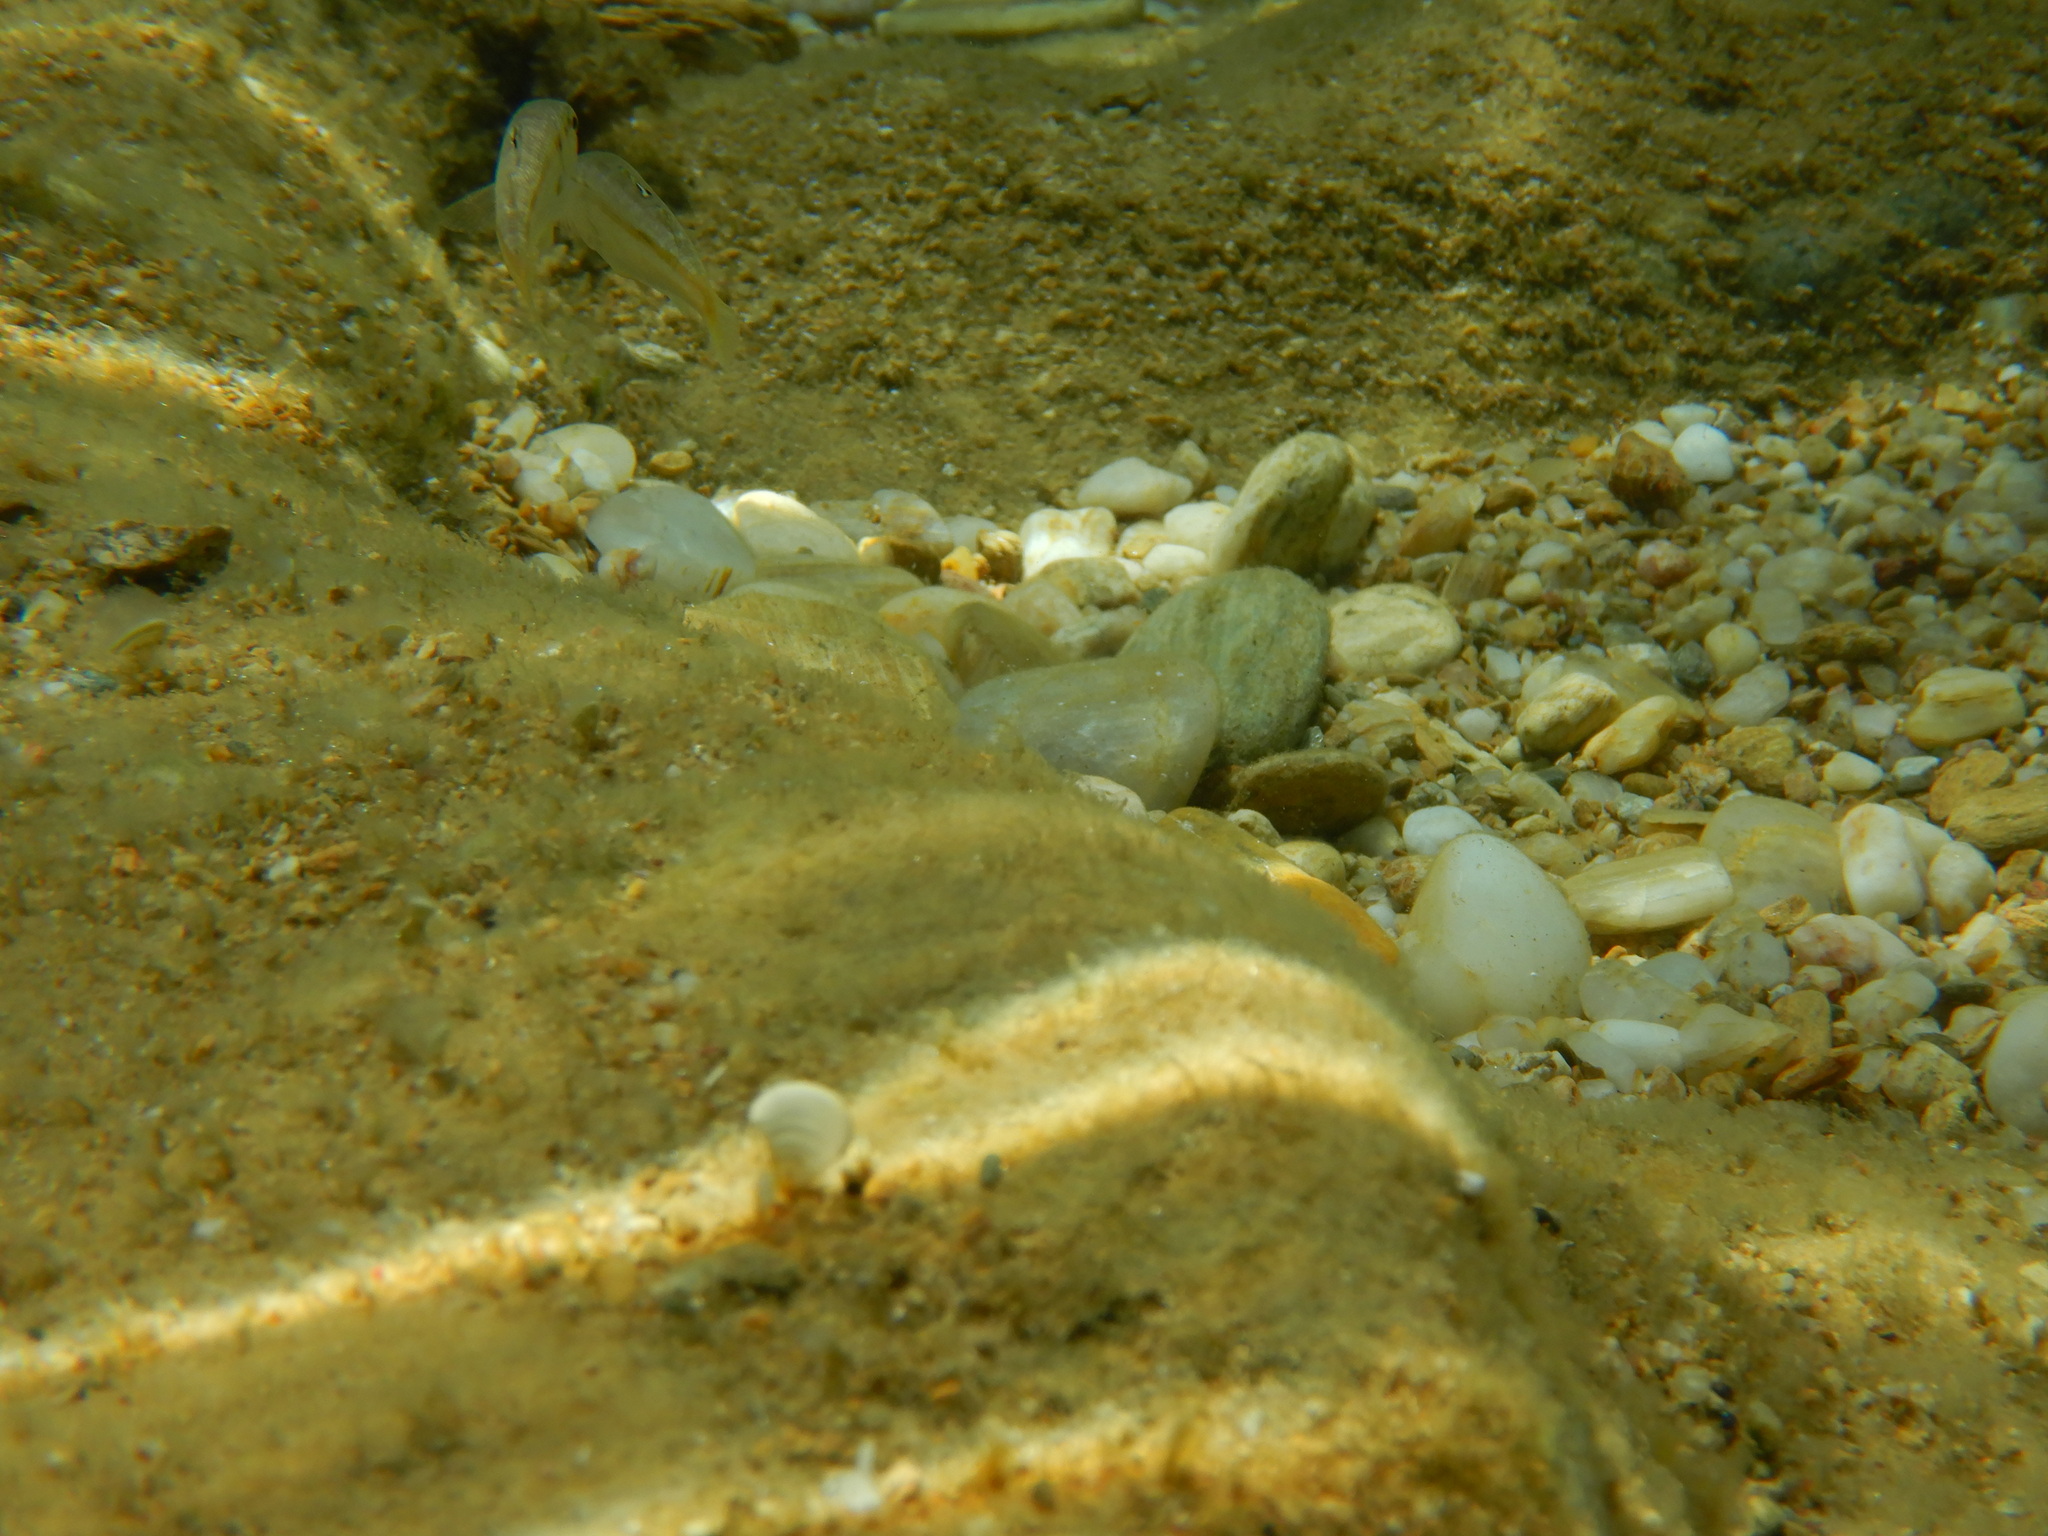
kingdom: Animalia
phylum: Chordata
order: Perciformes
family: Mullidae
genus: Mullus
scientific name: Mullus surmuletus
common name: Red mullet
